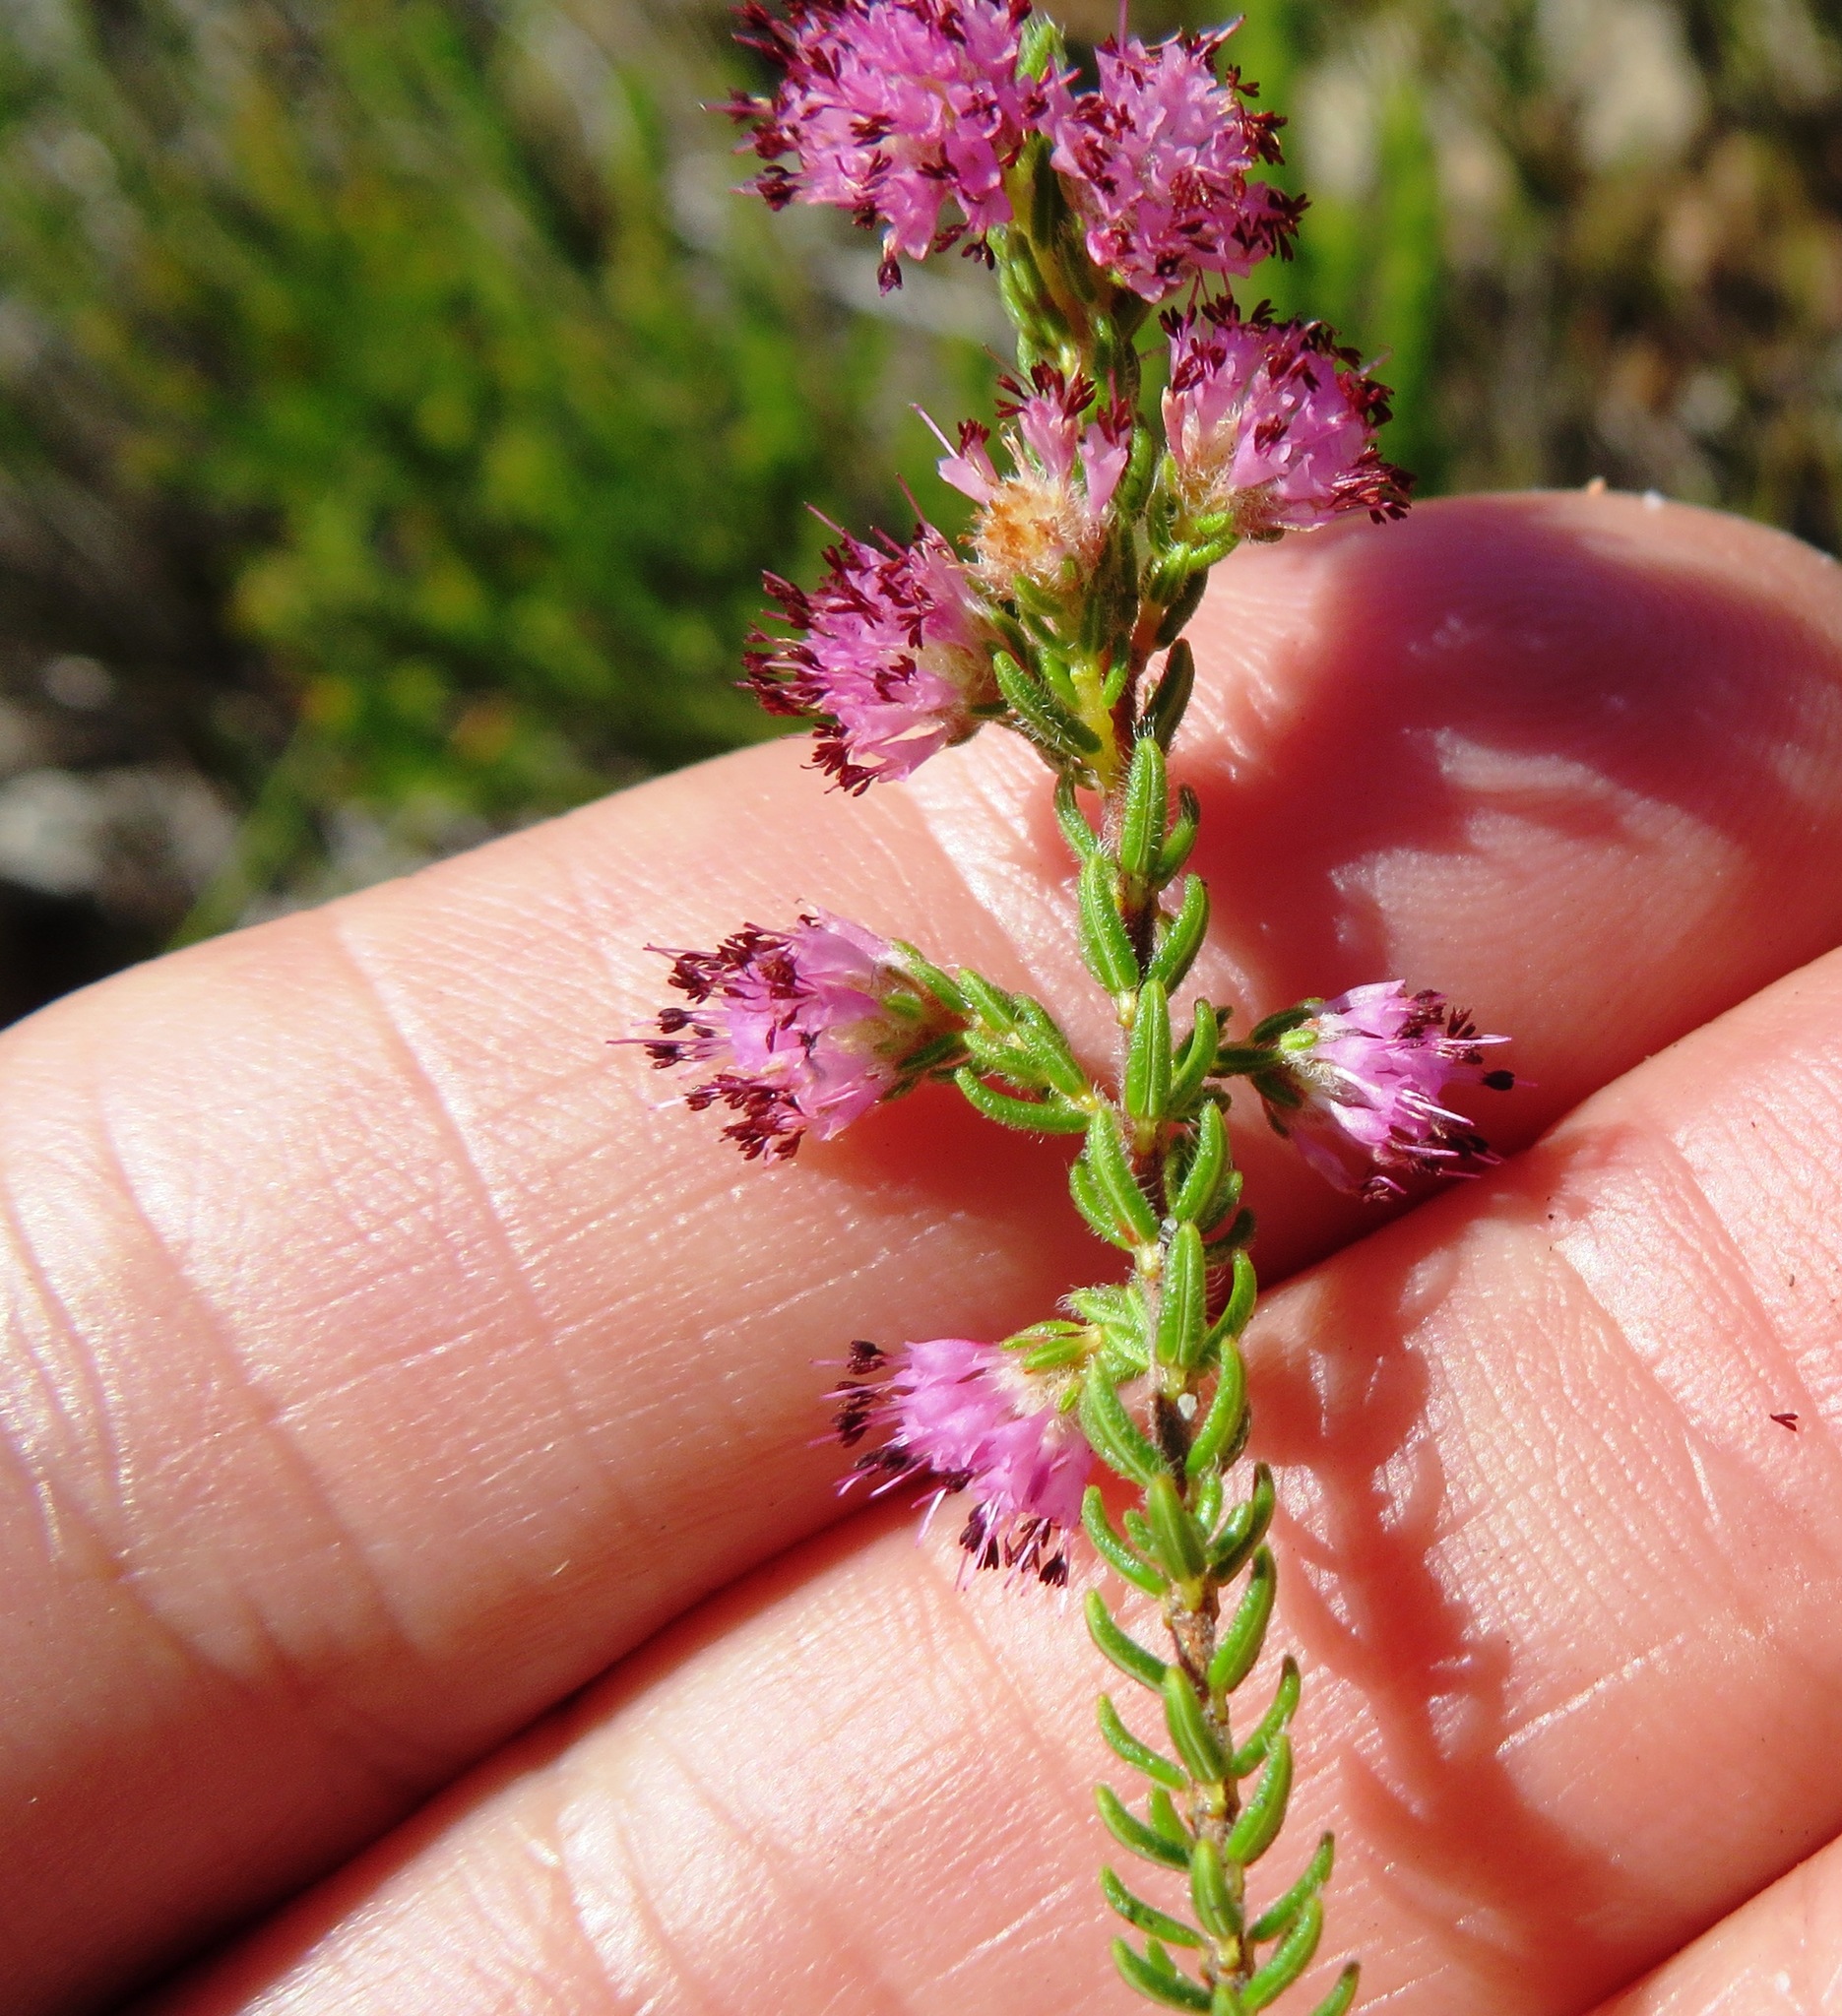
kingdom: Plantae
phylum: Tracheophyta
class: Magnoliopsida
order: Ericales
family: Ericaceae
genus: Erica
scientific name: Erica similis
